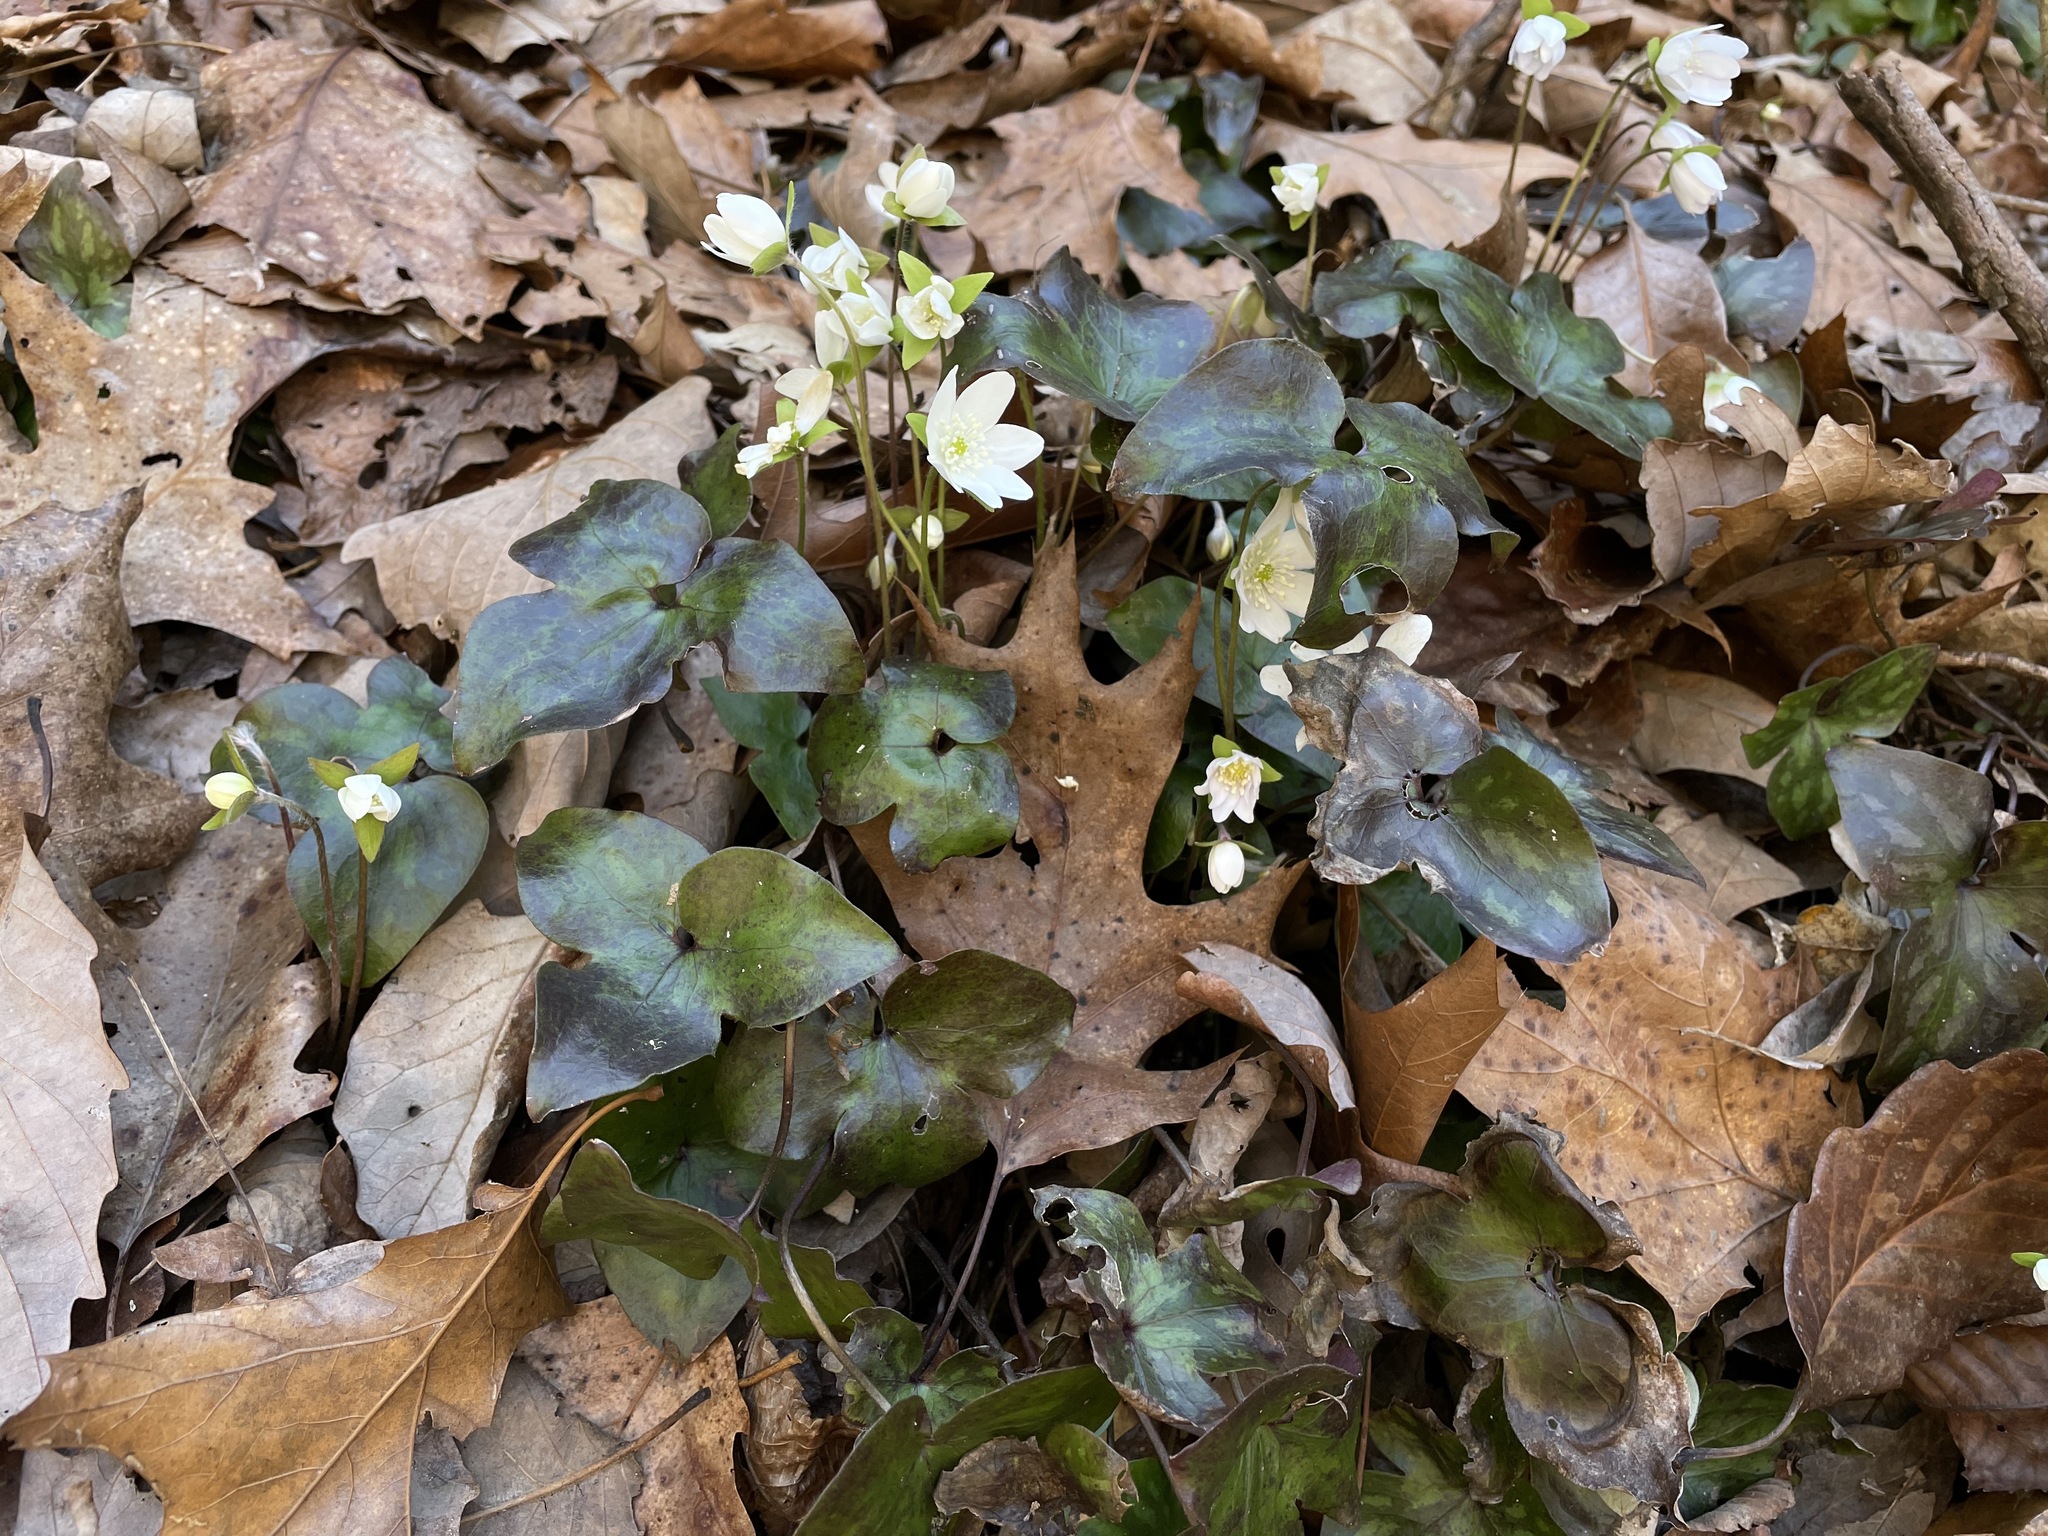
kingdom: Plantae
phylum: Tracheophyta
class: Magnoliopsida
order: Ranunculales
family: Ranunculaceae
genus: Hepatica
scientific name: Hepatica acutiloba
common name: Sharp-lobed hepatica
